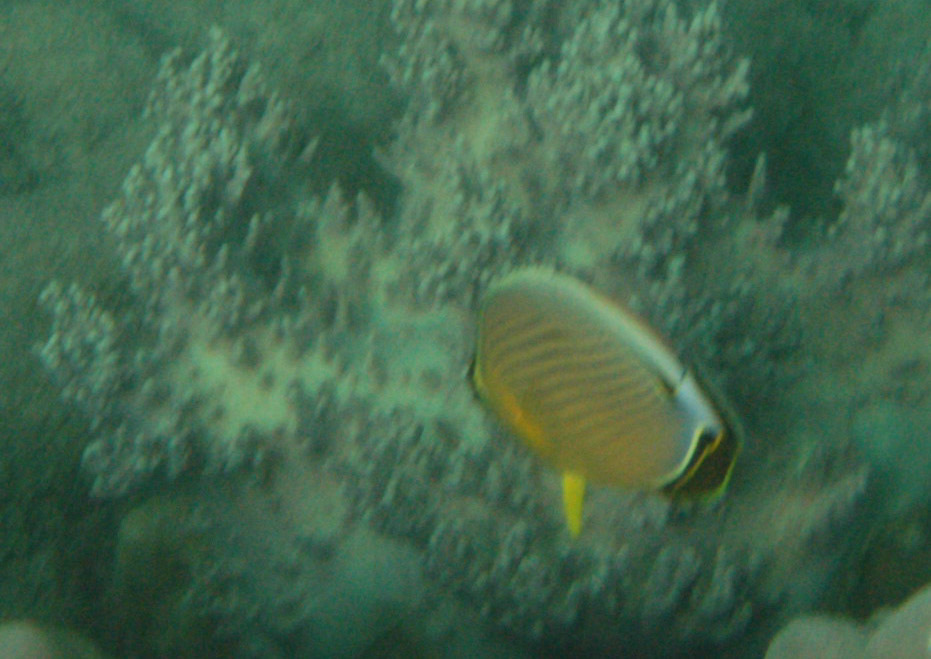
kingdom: Animalia
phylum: Chordata
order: Perciformes
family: Chaetodontidae
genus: Chaetodon
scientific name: Chaetodon lunulatus
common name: Redfin butterflyfish
